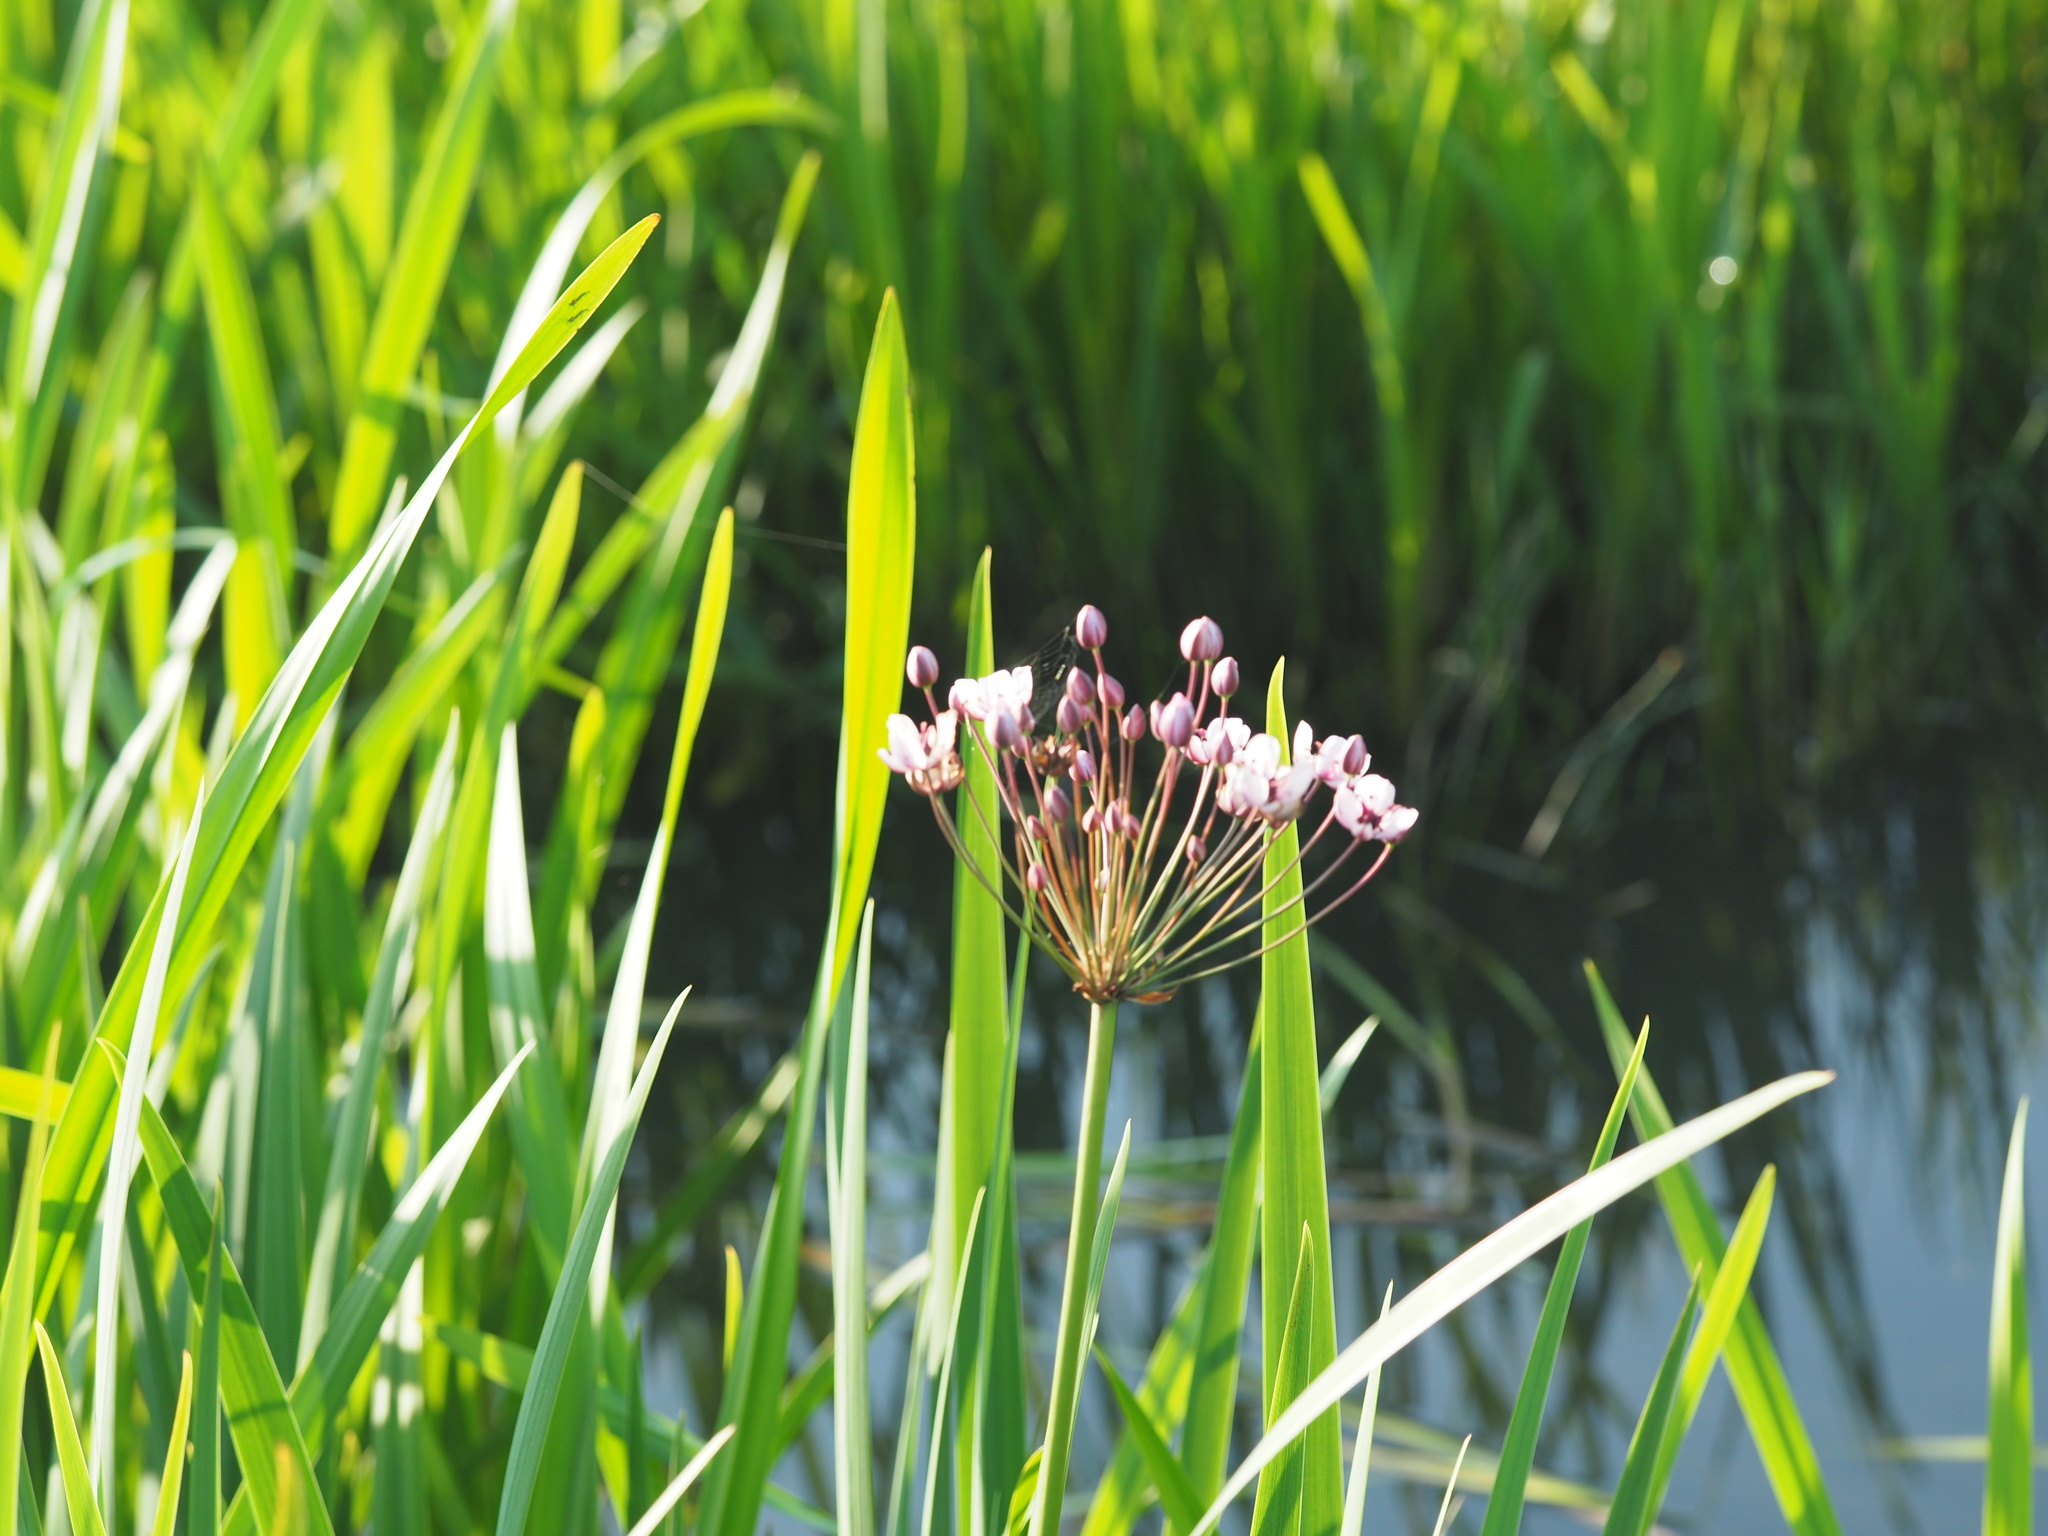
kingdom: Plantae
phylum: Tracheophyta
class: Liliopsida
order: Alismatales
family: Butomaceae
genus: Butomus
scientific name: Butomus umbellatus
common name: Flowering-rush
